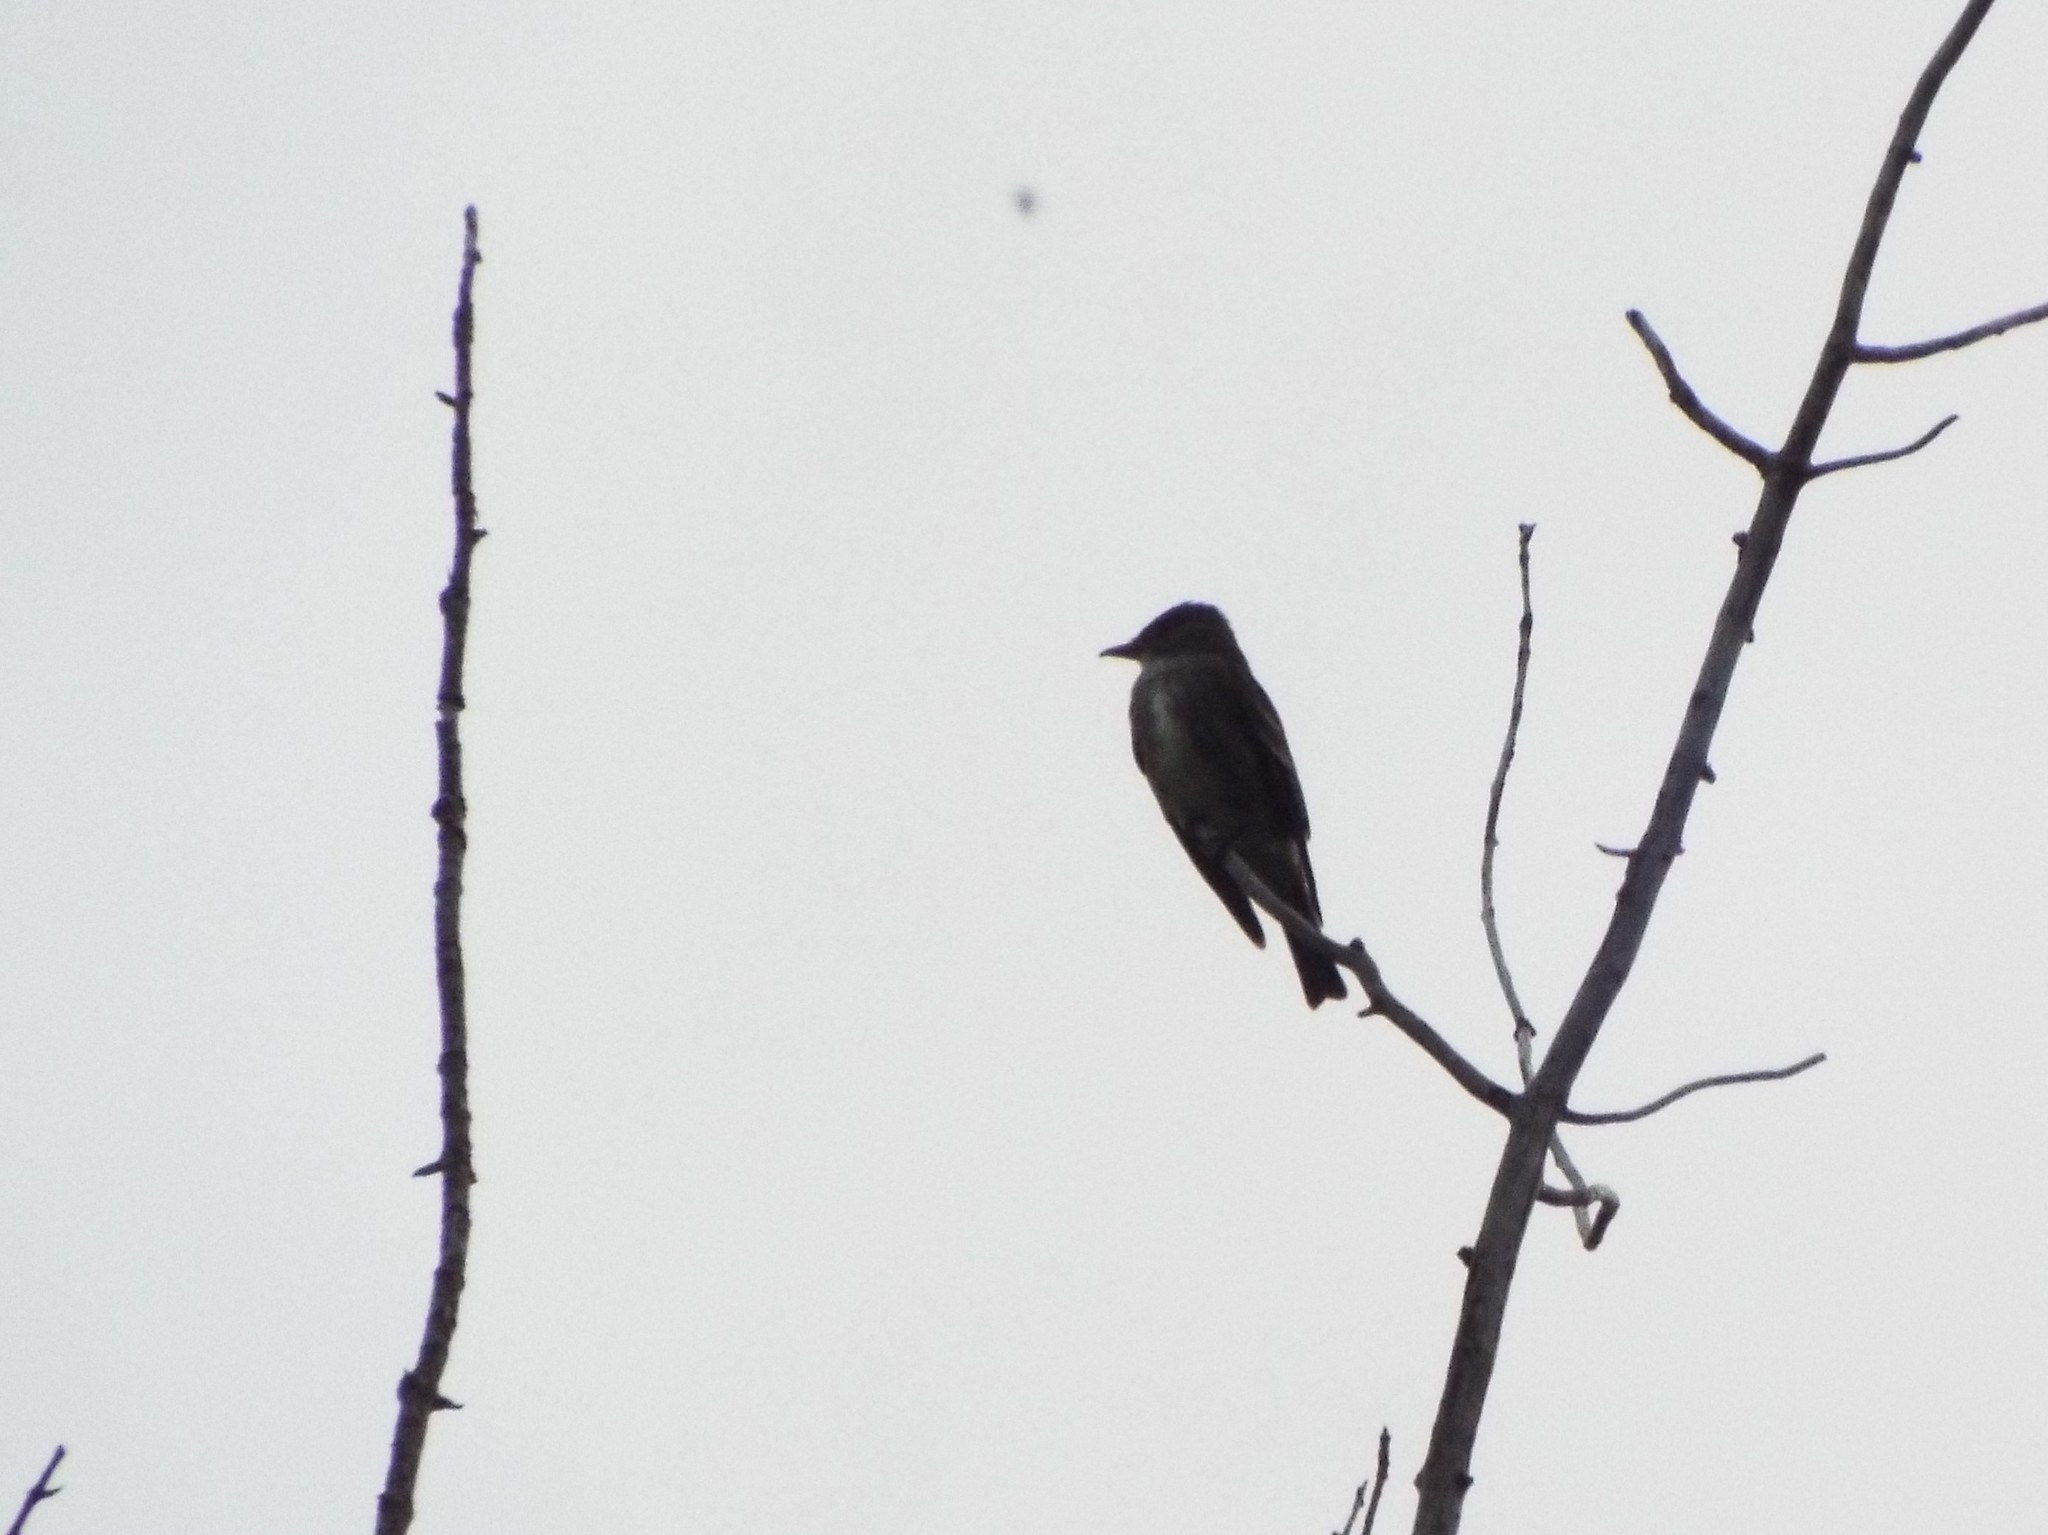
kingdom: Animalia
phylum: Chordata
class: Aves
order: Passeriformes
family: Tyrannidae
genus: Contopus
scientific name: Contopus cooperi
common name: Olive-sided flycatcher
